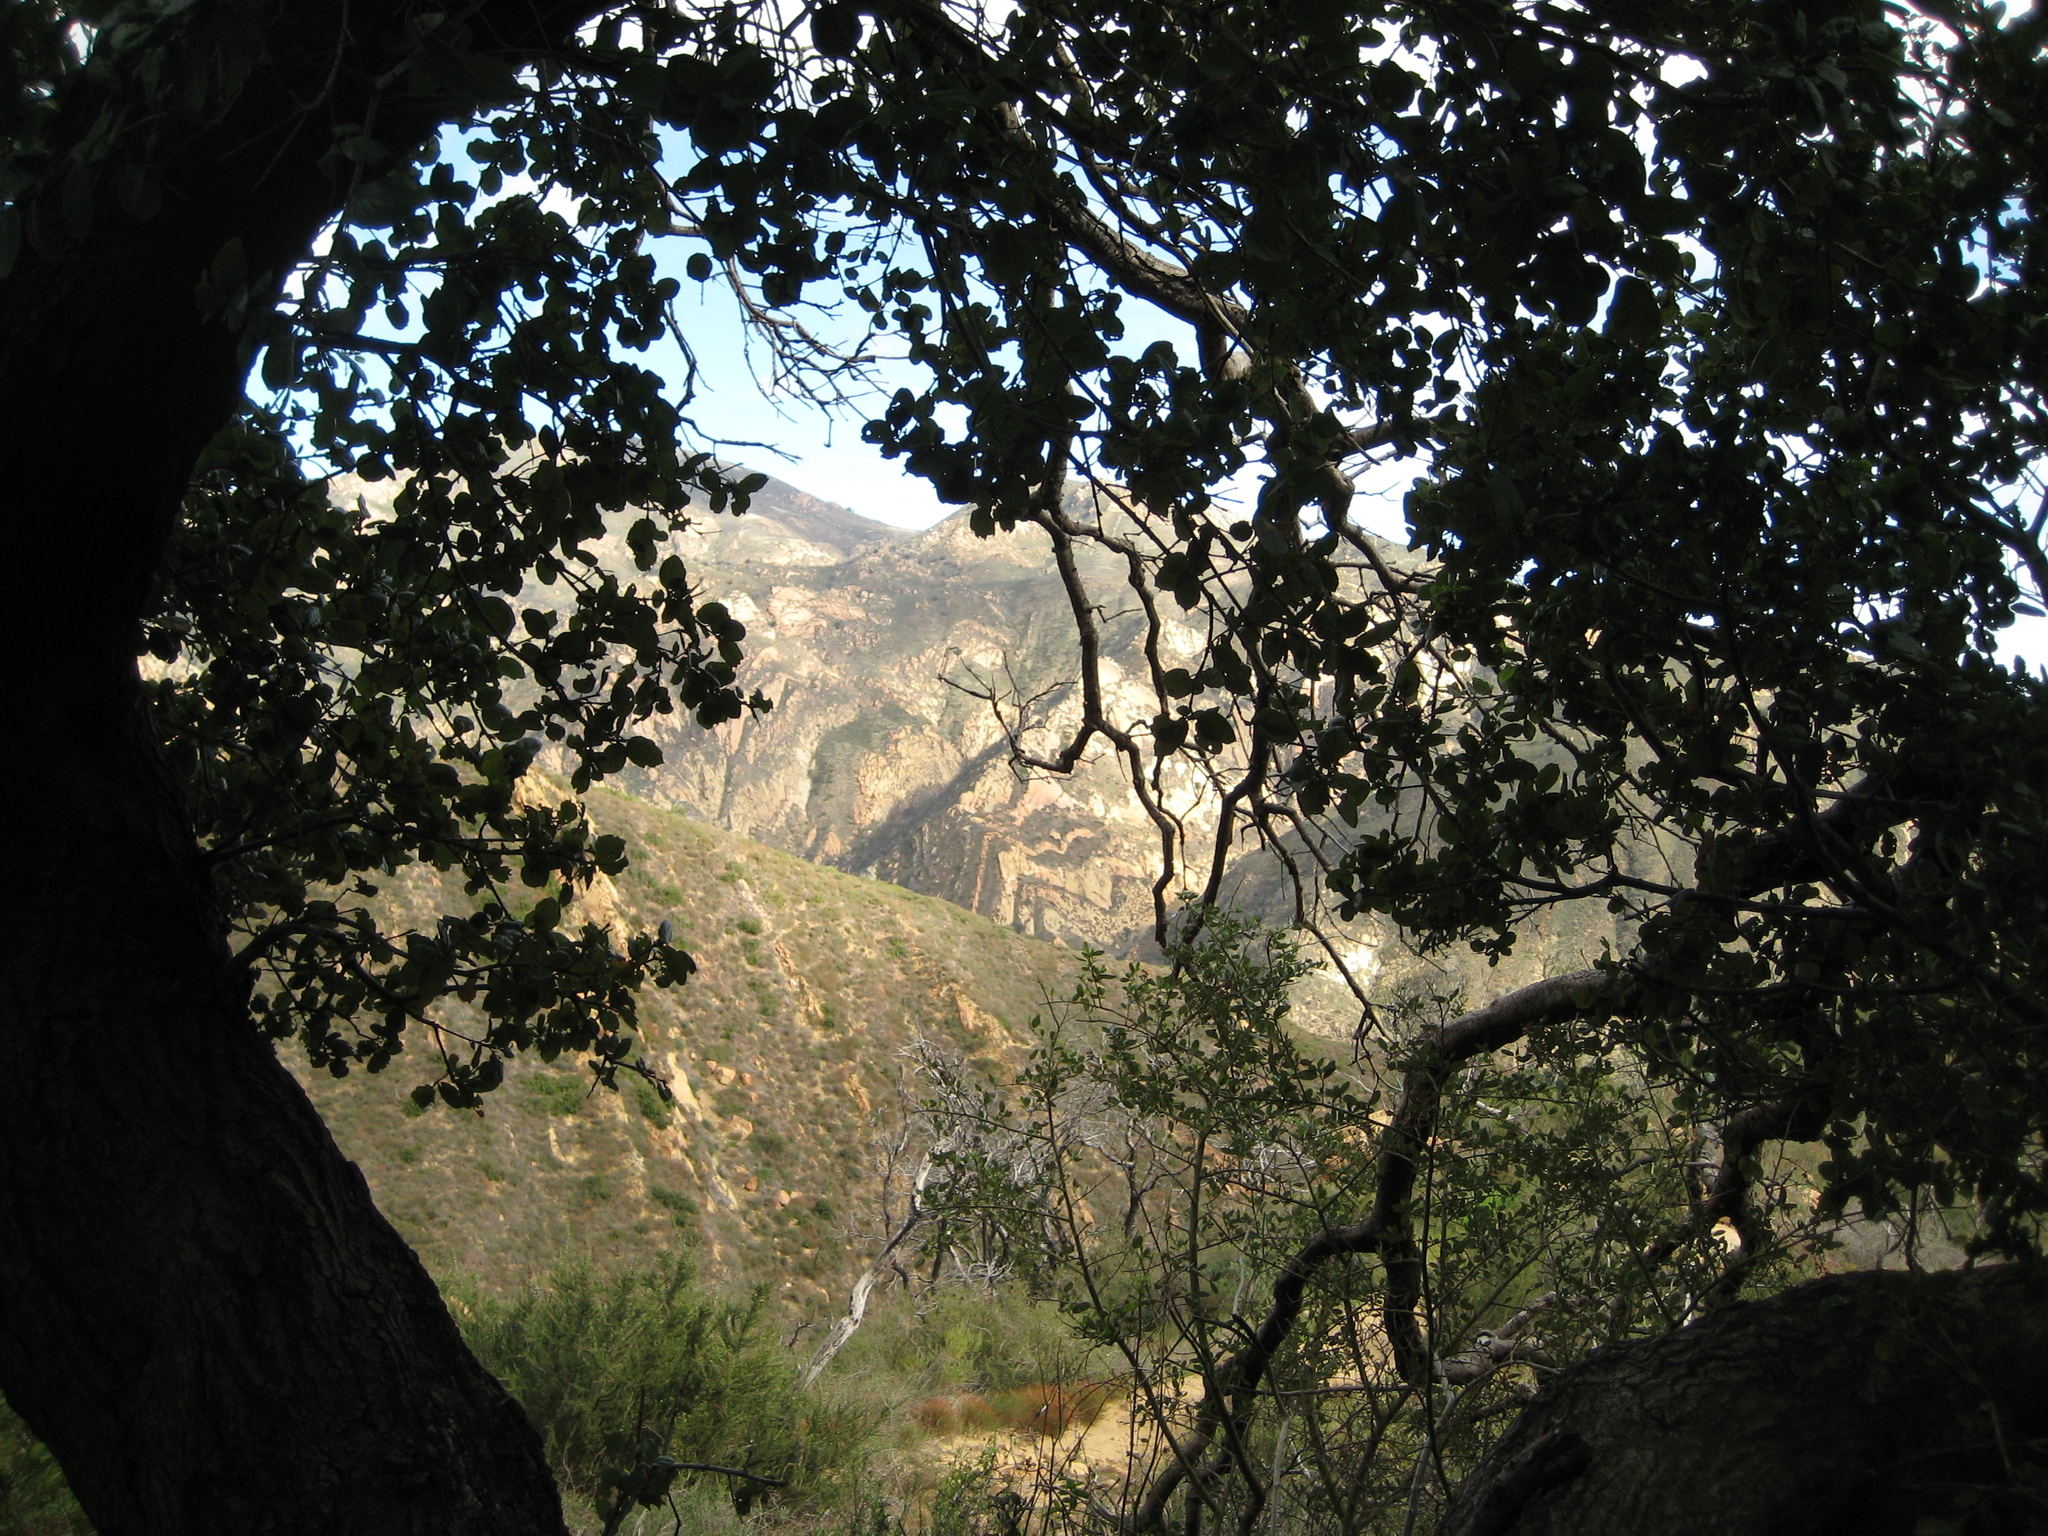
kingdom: Plantae
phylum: Tracheophyta
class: Magnoliopsida
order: Fagales
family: Fagaceae
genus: Quercus
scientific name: Quercus agrifolia
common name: California live oak
